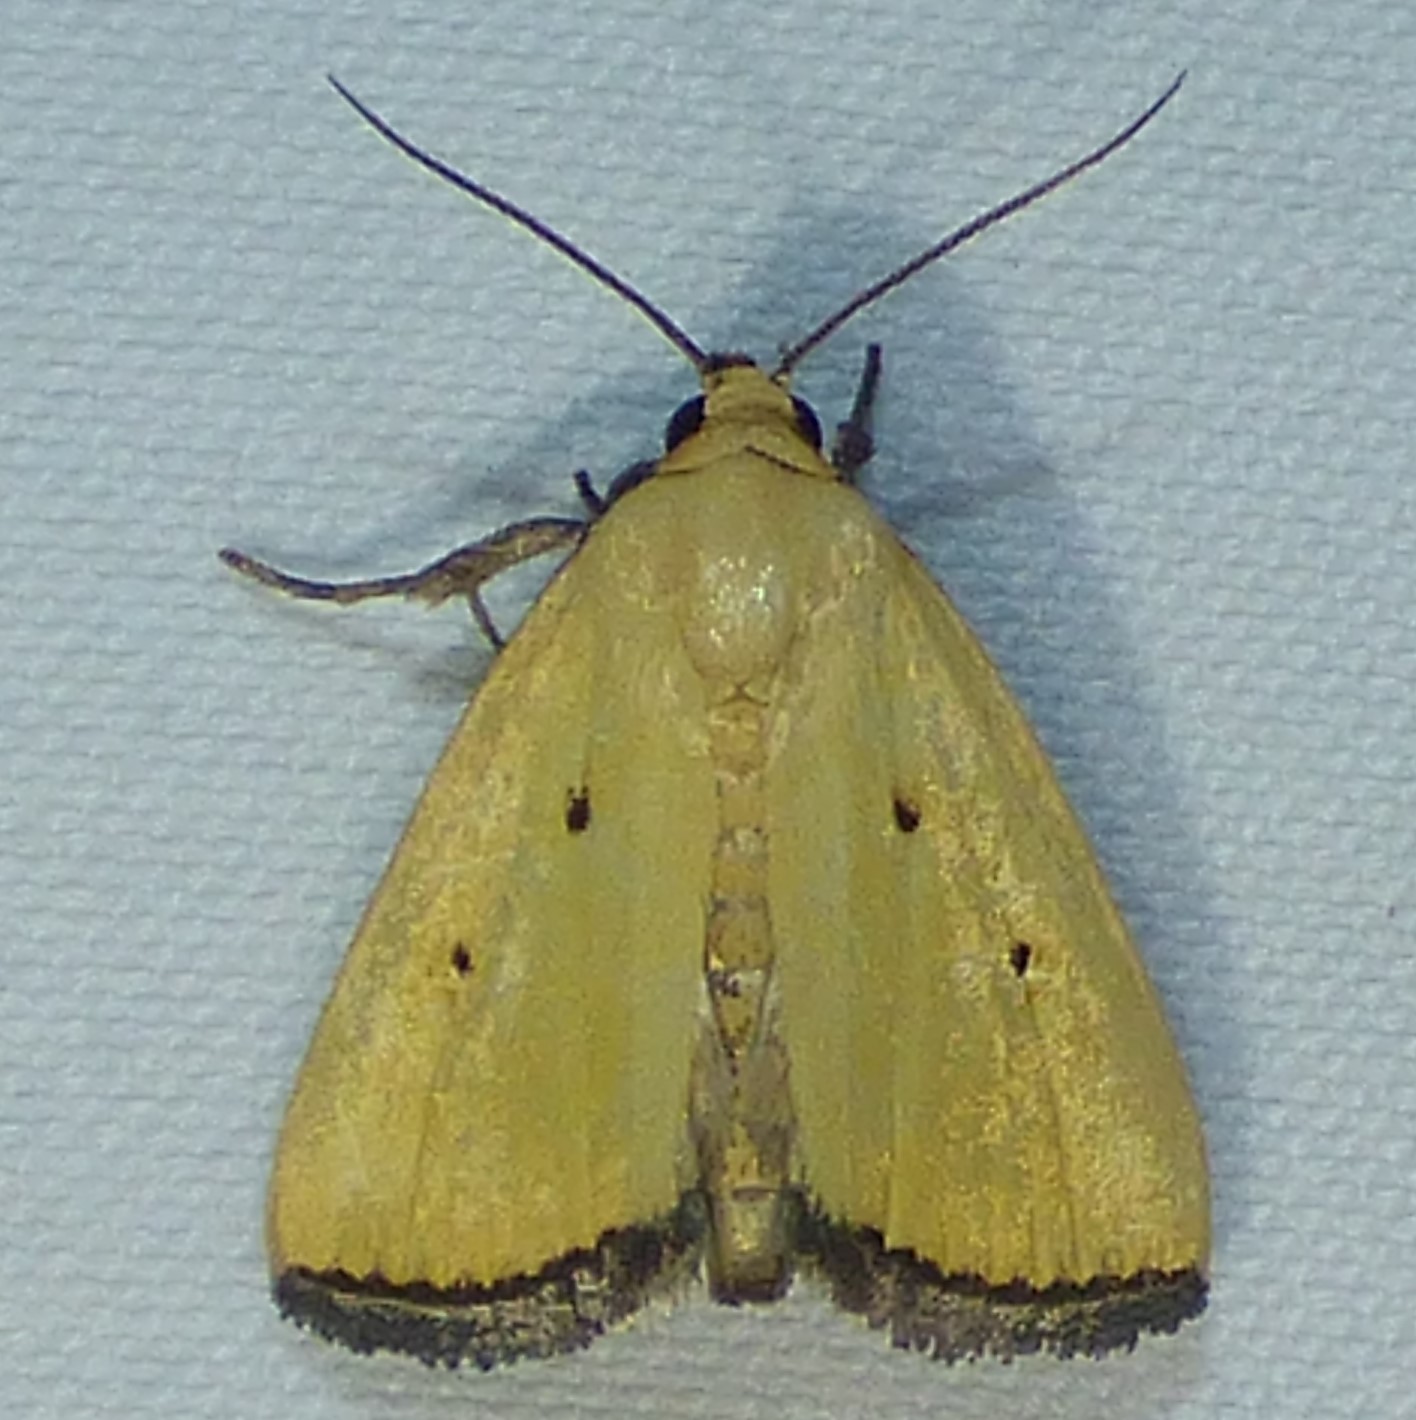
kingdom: Animalia
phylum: Arthropoda
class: Insecta
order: Lepidoptera
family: Noctuidae
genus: Marimatha
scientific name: Marimatha nigrofimbria
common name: Black-bordered lemon moth
